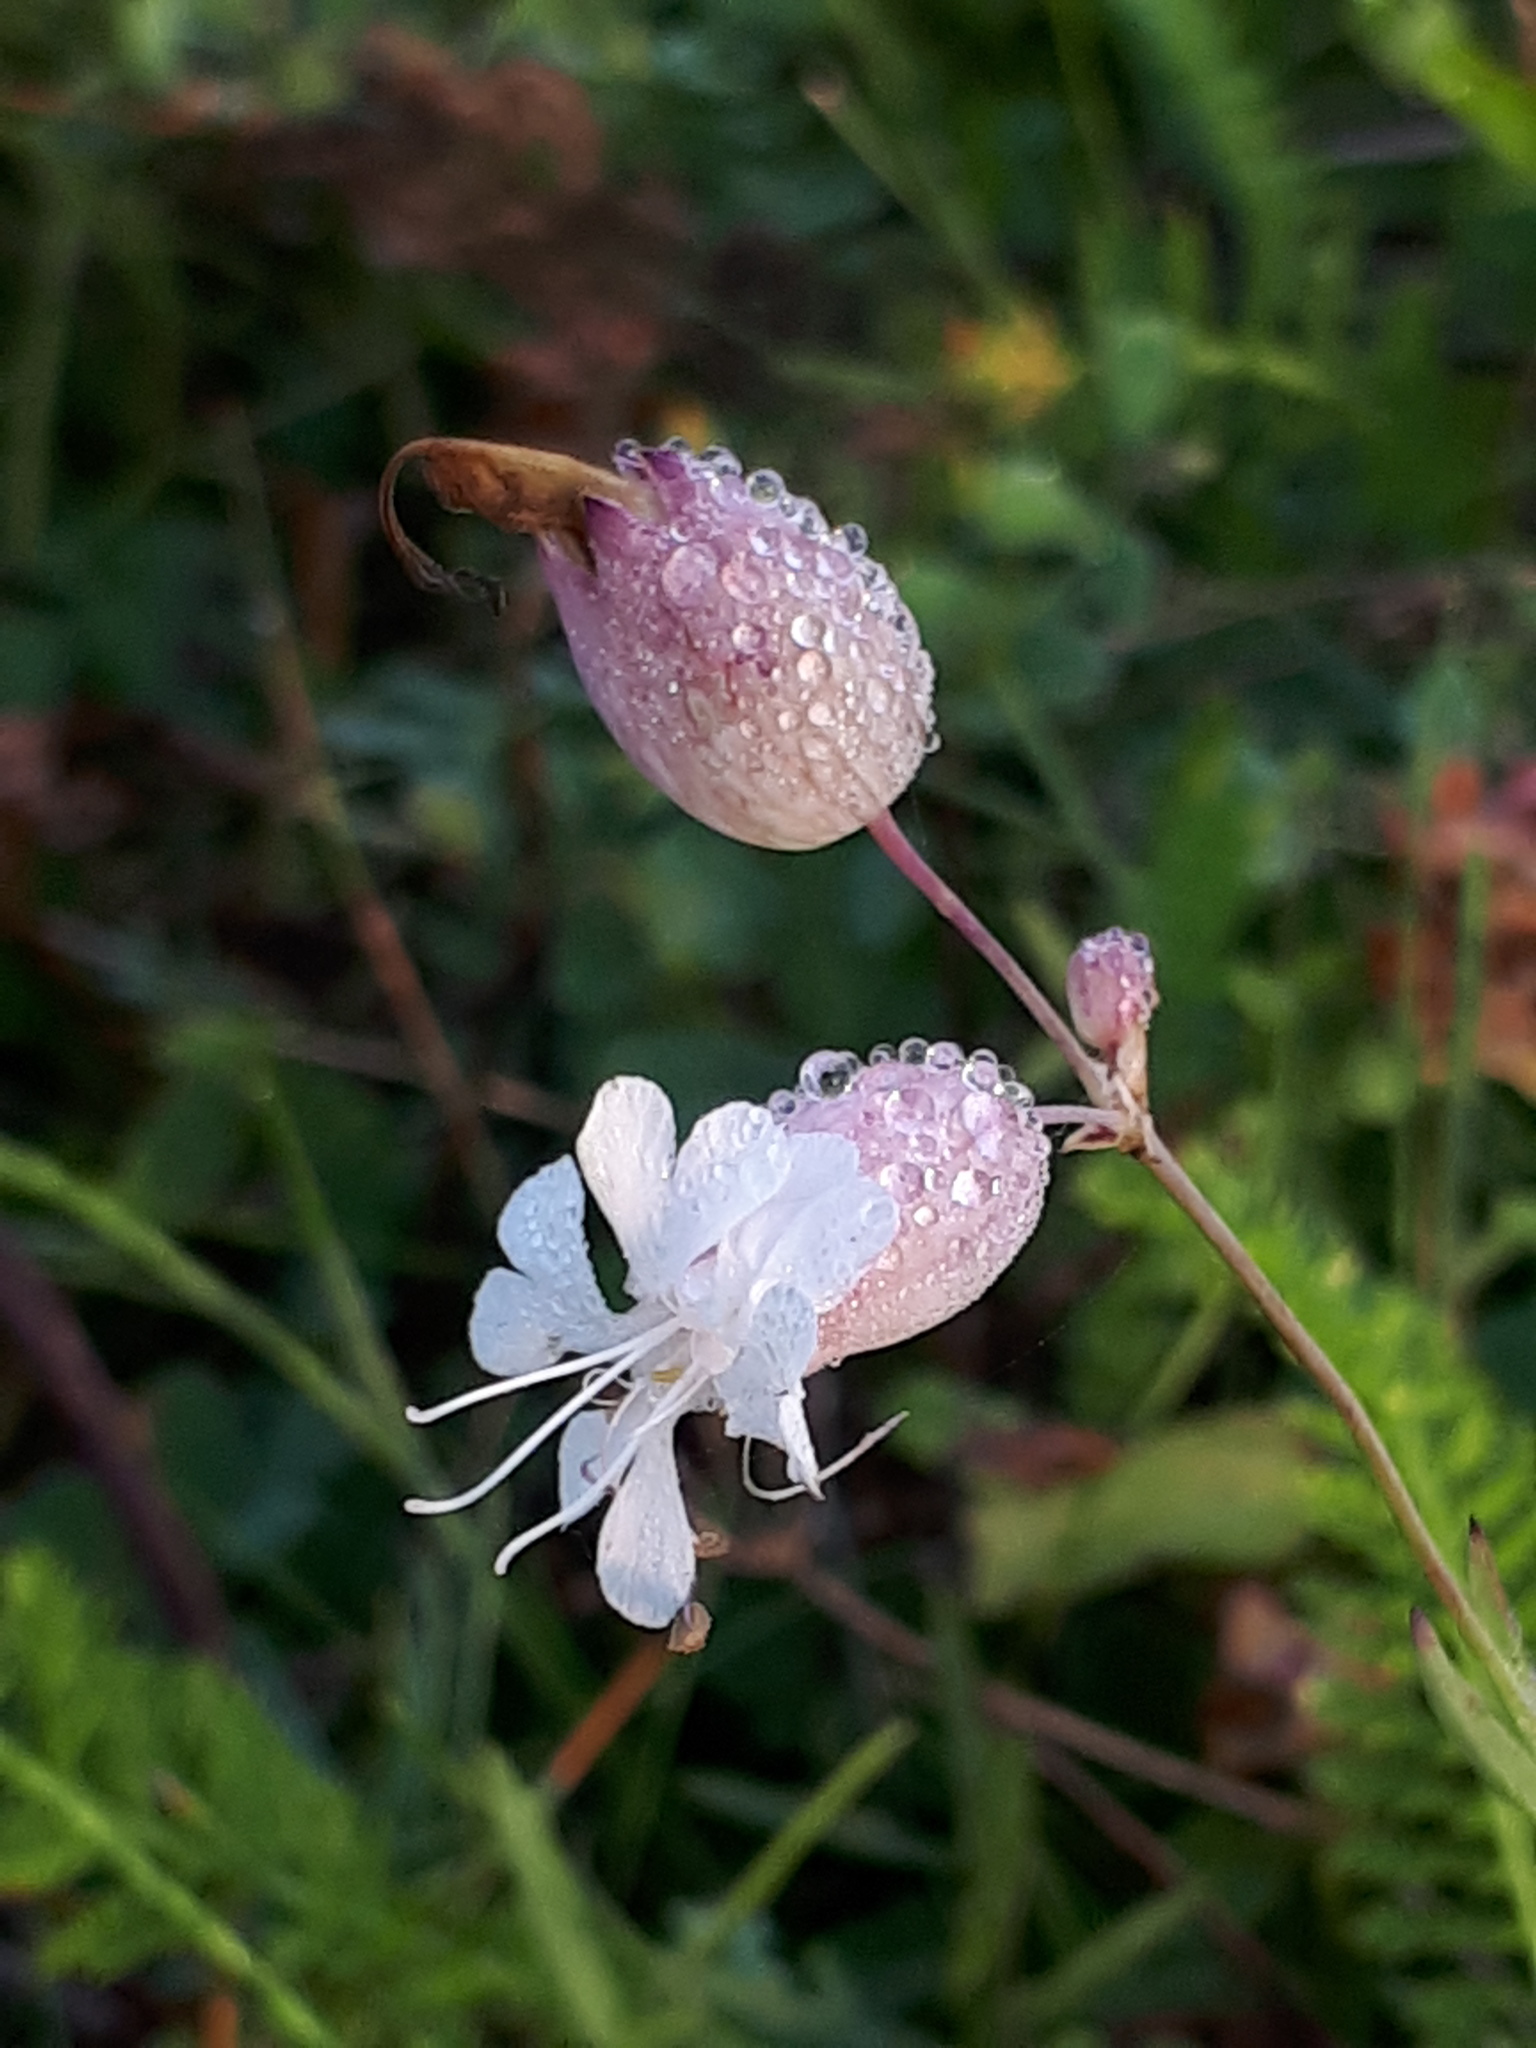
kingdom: Plantae
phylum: Tracheophyta
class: Magnoliopsida
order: Caryophyllales
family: Caryophyllaceae
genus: Silene
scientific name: Silene vulgaris
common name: Bladder campion
